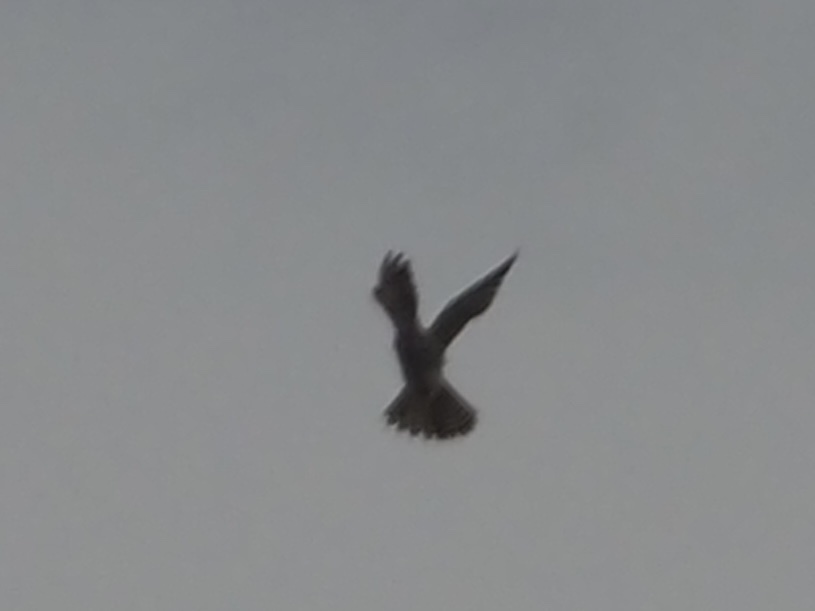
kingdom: Animalia
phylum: Chordata
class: Aves
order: Falconiformes
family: Falconidae
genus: Falco
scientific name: Falco sparverius
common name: American kestrel
